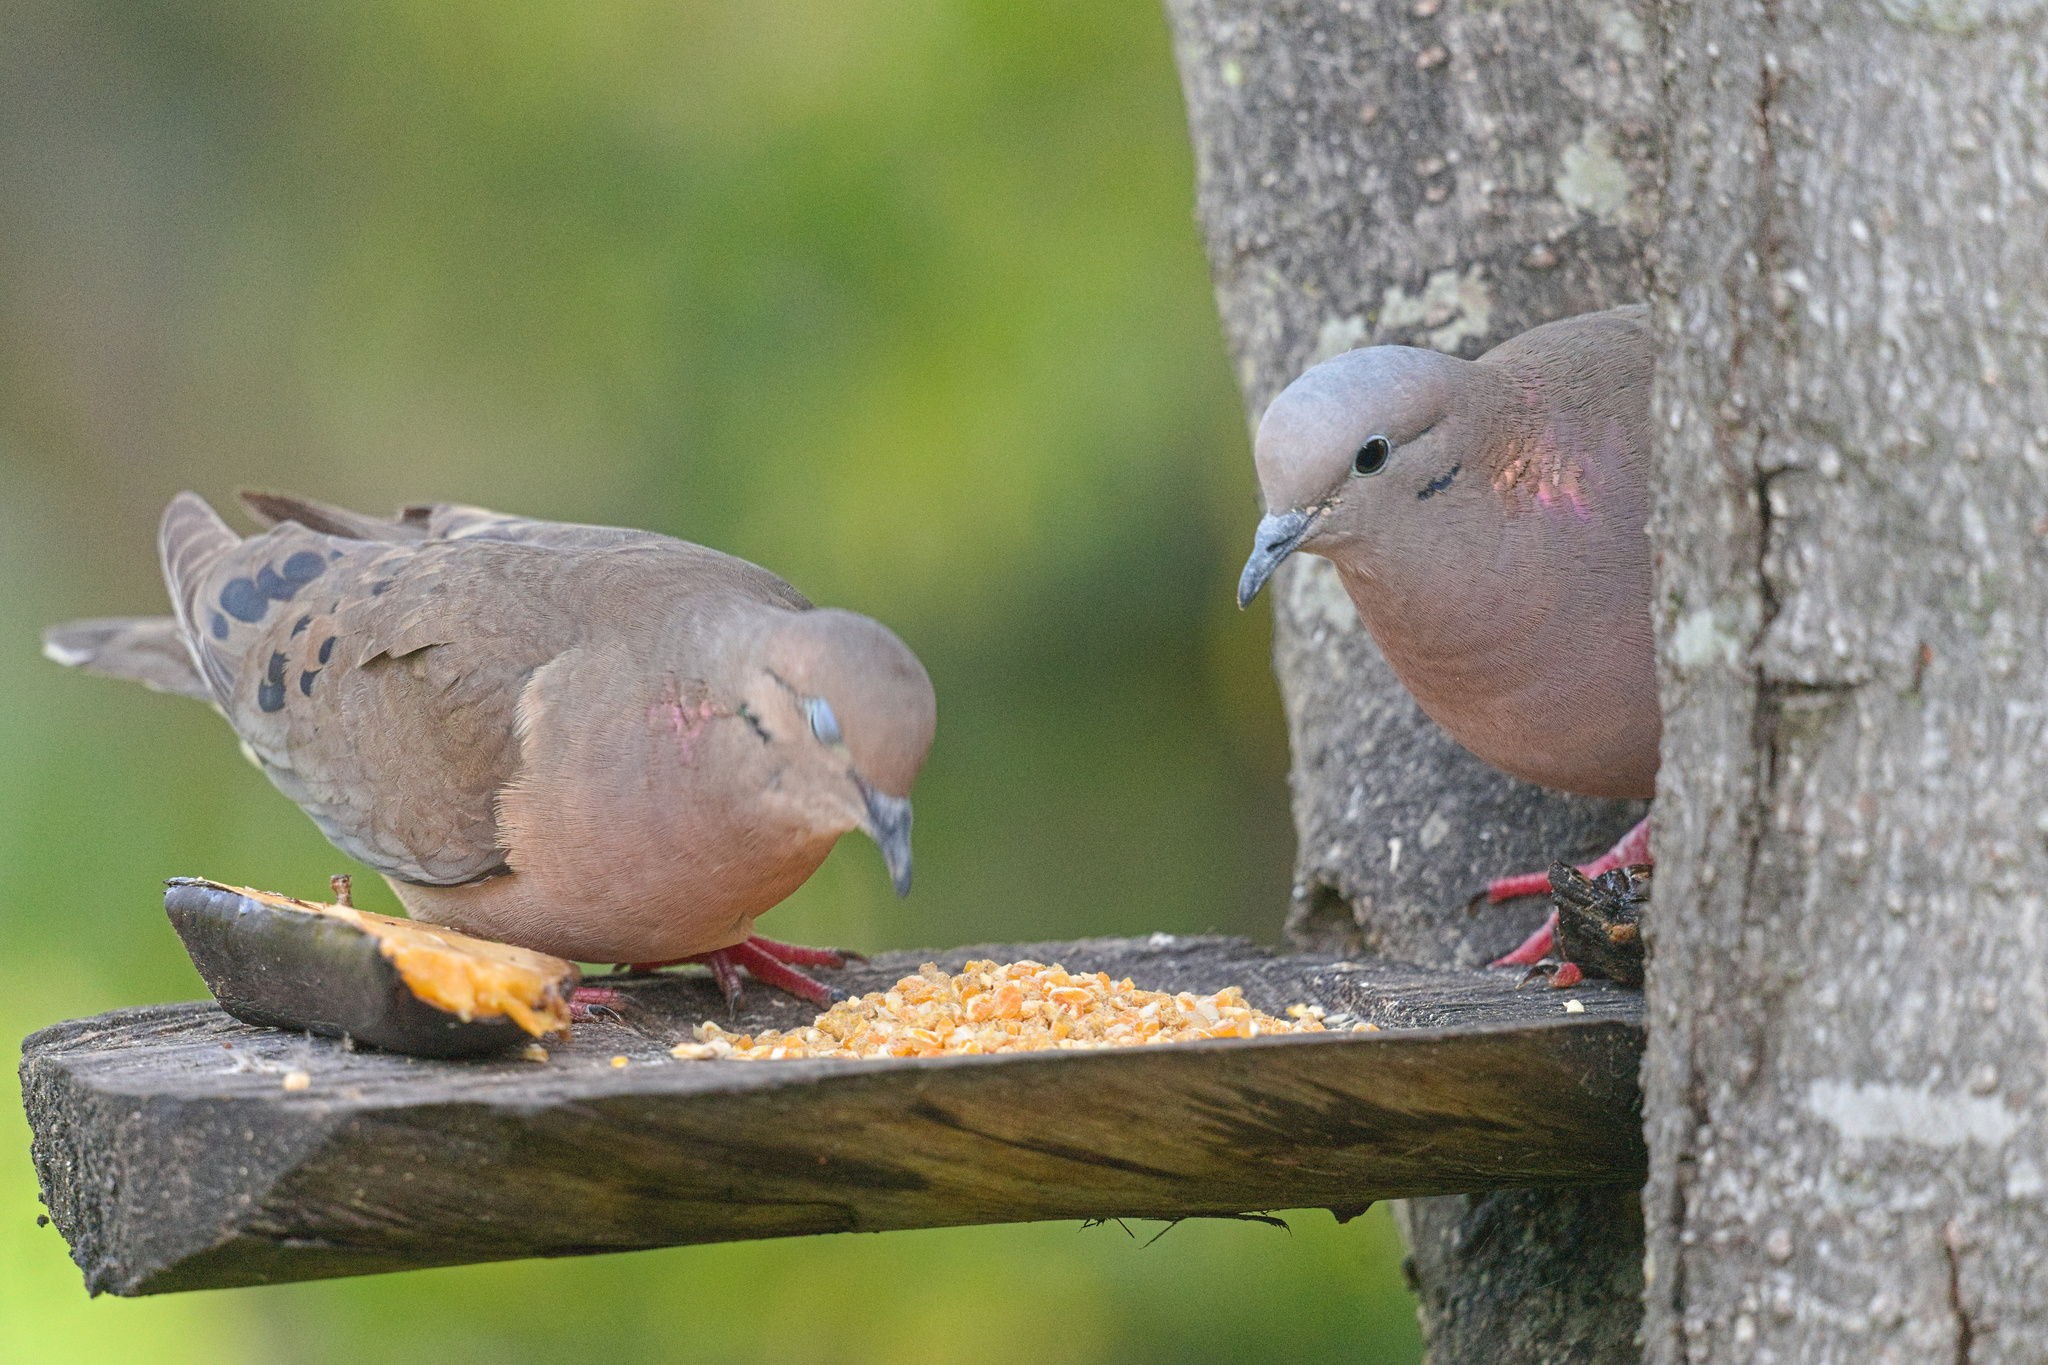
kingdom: Animalia
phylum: Chordata
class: Aves
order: Columbiformes
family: Columbidae
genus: Zenaida
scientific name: Zenaida auriculata
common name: Eared dove
